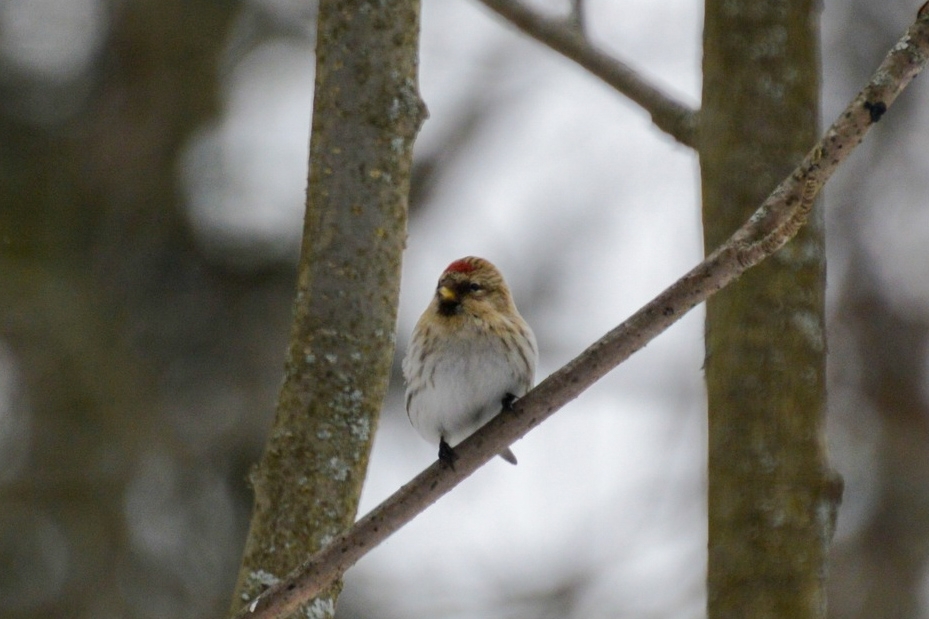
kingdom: Animalia
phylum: Chordata
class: Aves
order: Passeriformes
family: Fringillidae
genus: Acanthis
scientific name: Acanthis flammea
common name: Common redpoll
